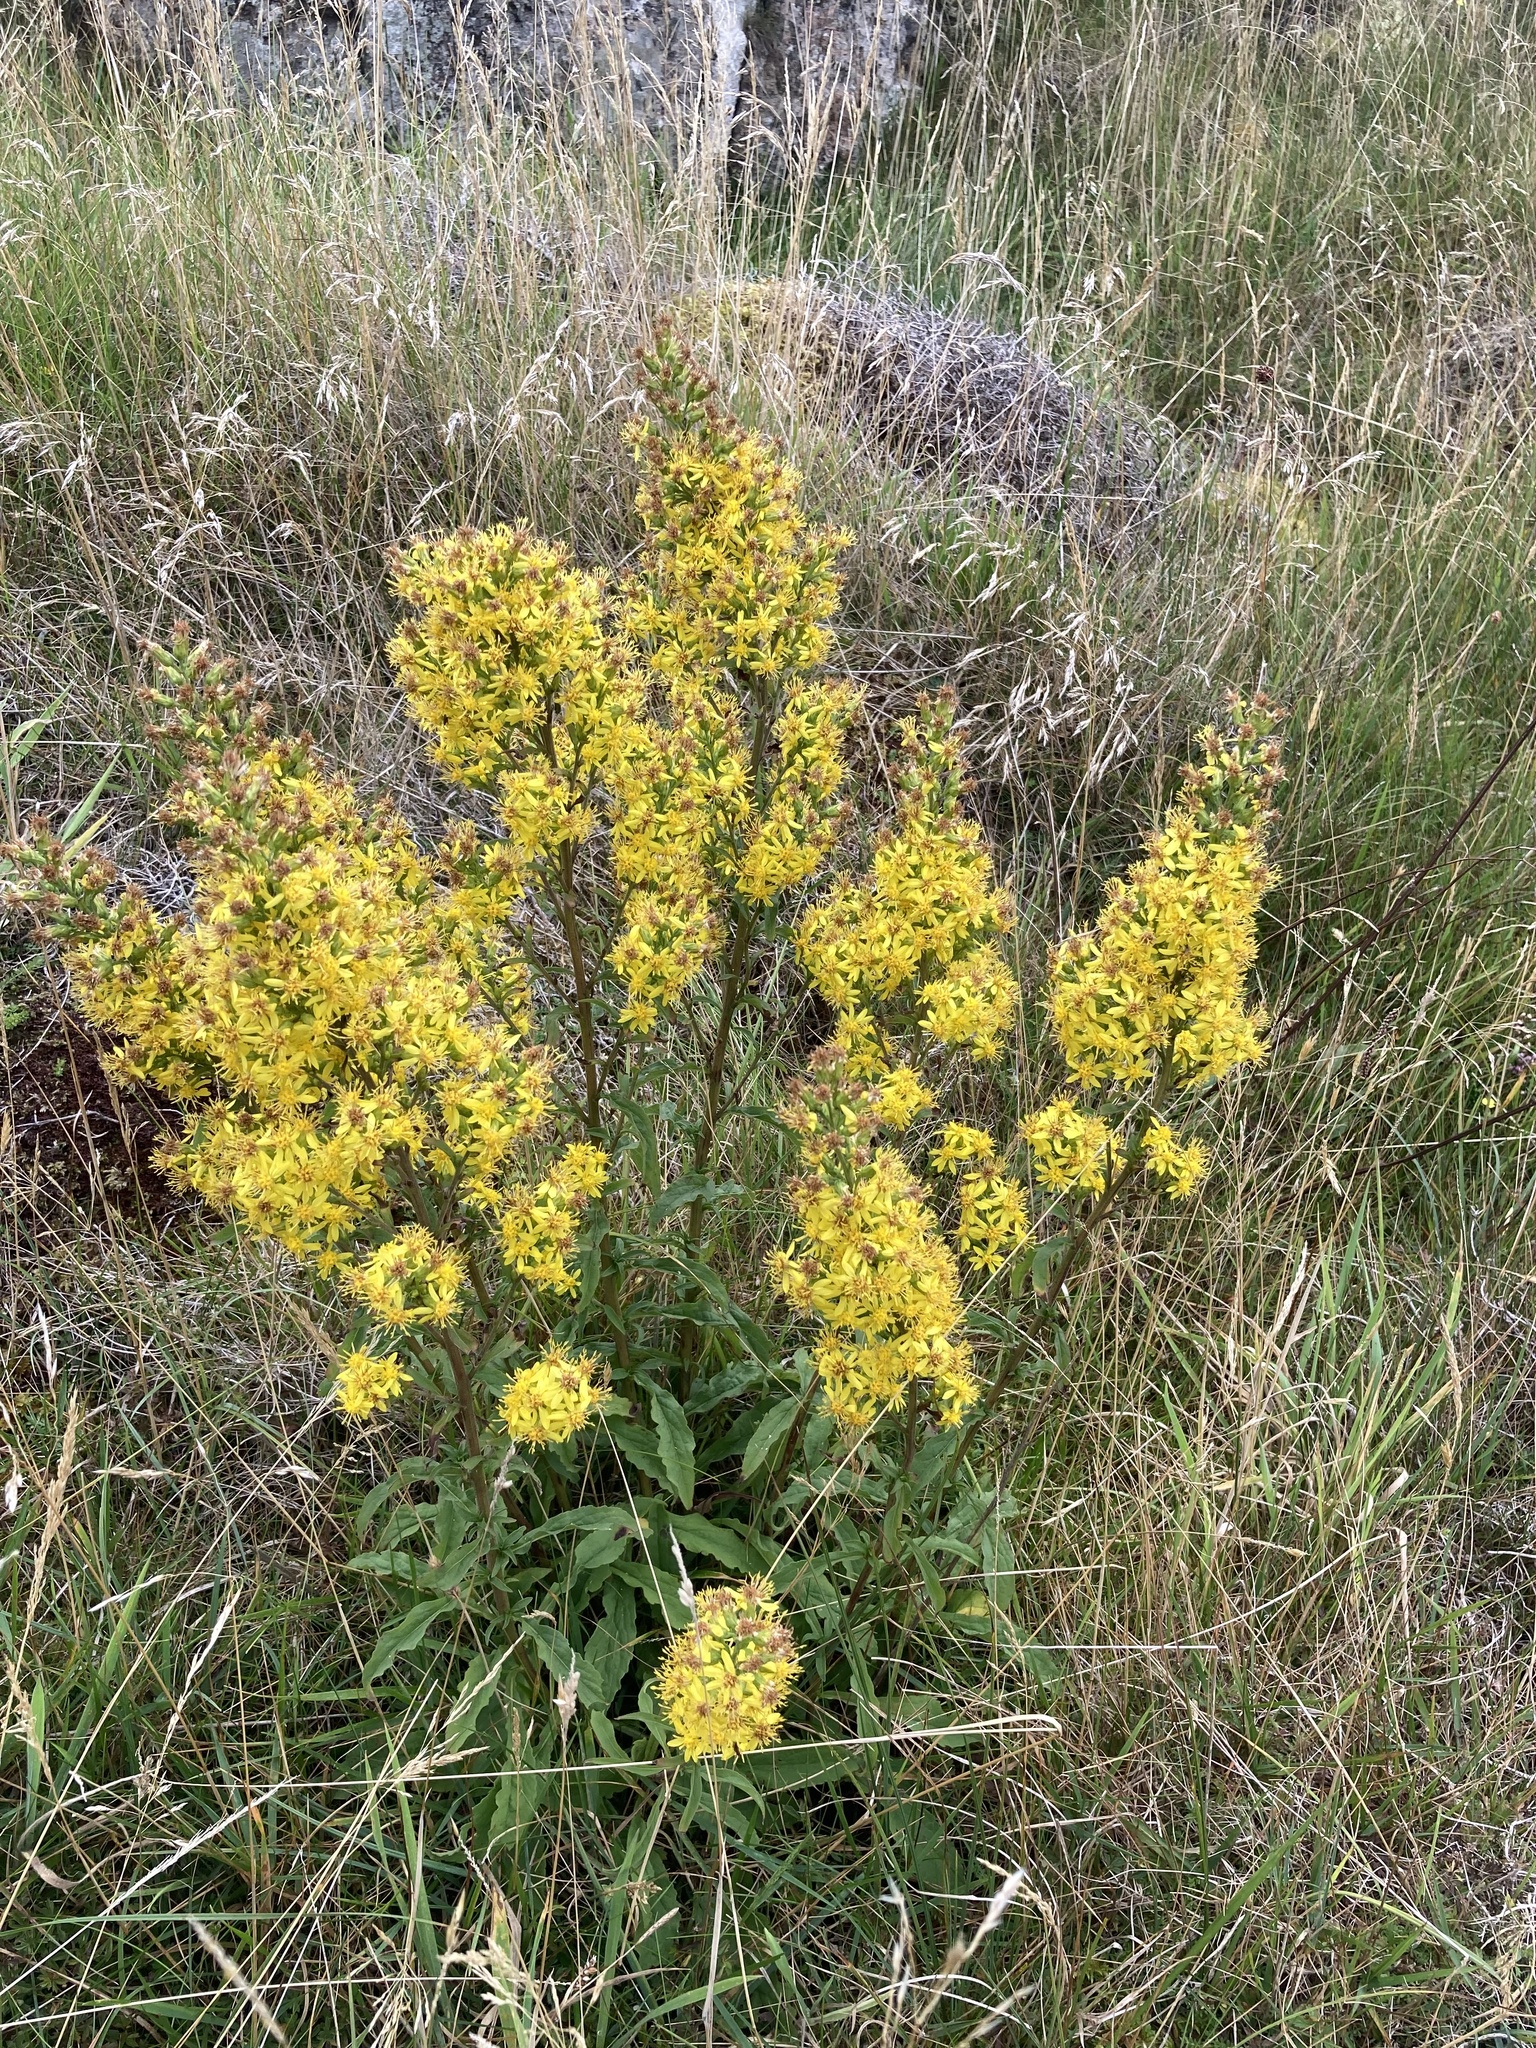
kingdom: Plantae
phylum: Tracheophyta
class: Magnoliopsida
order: Asterales
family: Asteraceae
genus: Solidago
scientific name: Solidago virgaurea
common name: Goldenrod
